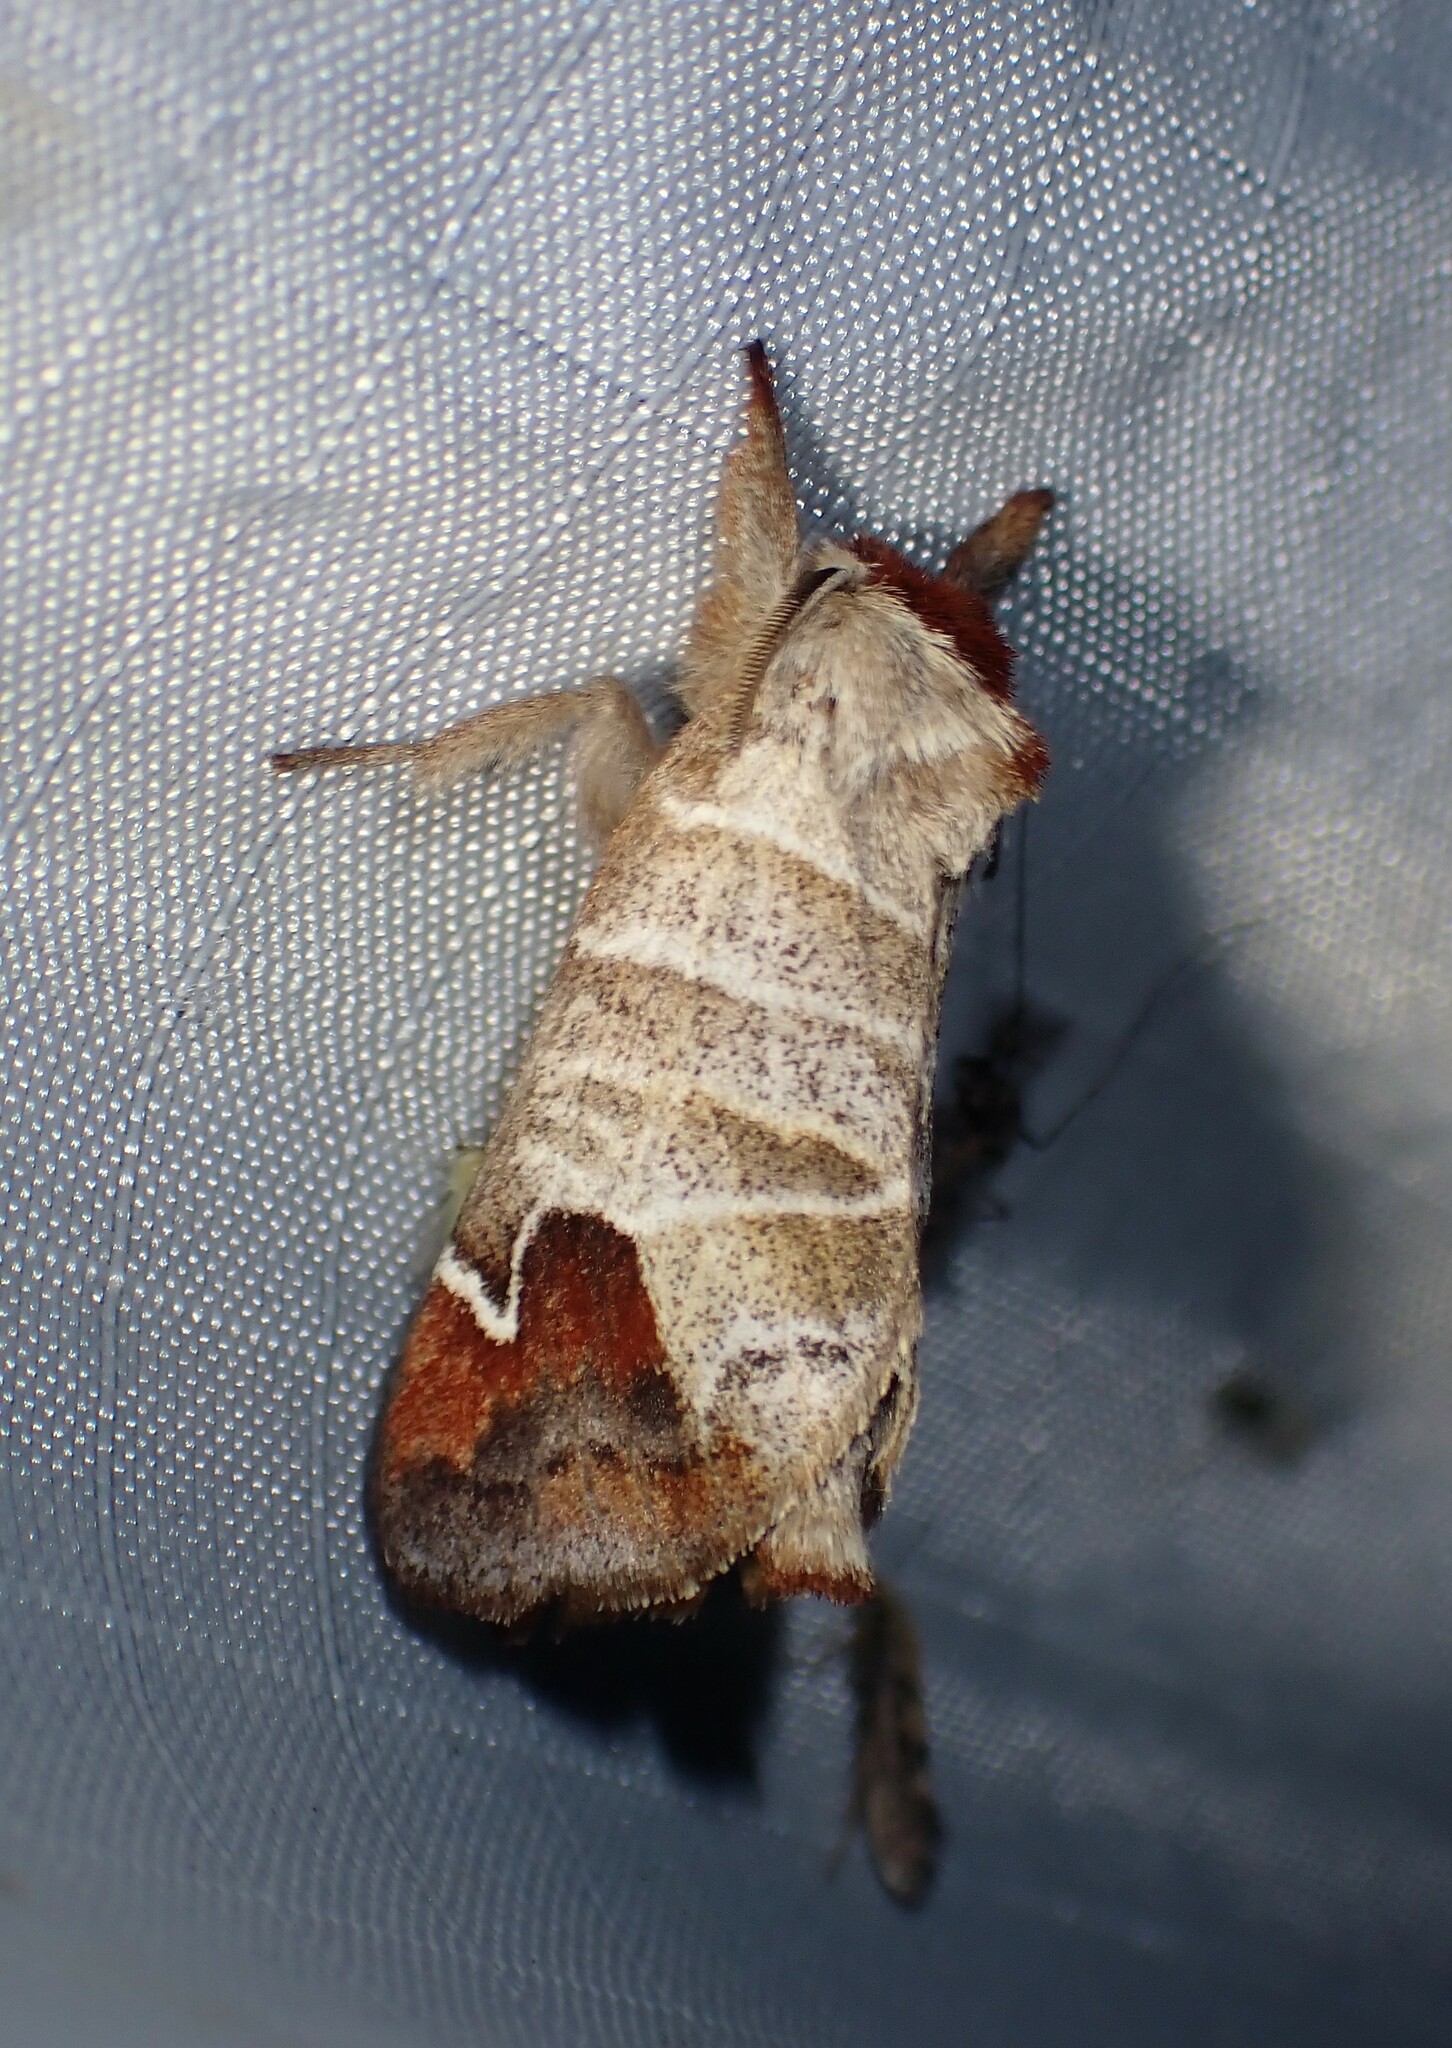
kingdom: Animalia
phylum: Arthropoda
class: Insecta
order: Lepidoptera
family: Notodontidae
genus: Clostera
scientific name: Clostera albosigma
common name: Sigmoid prominent
